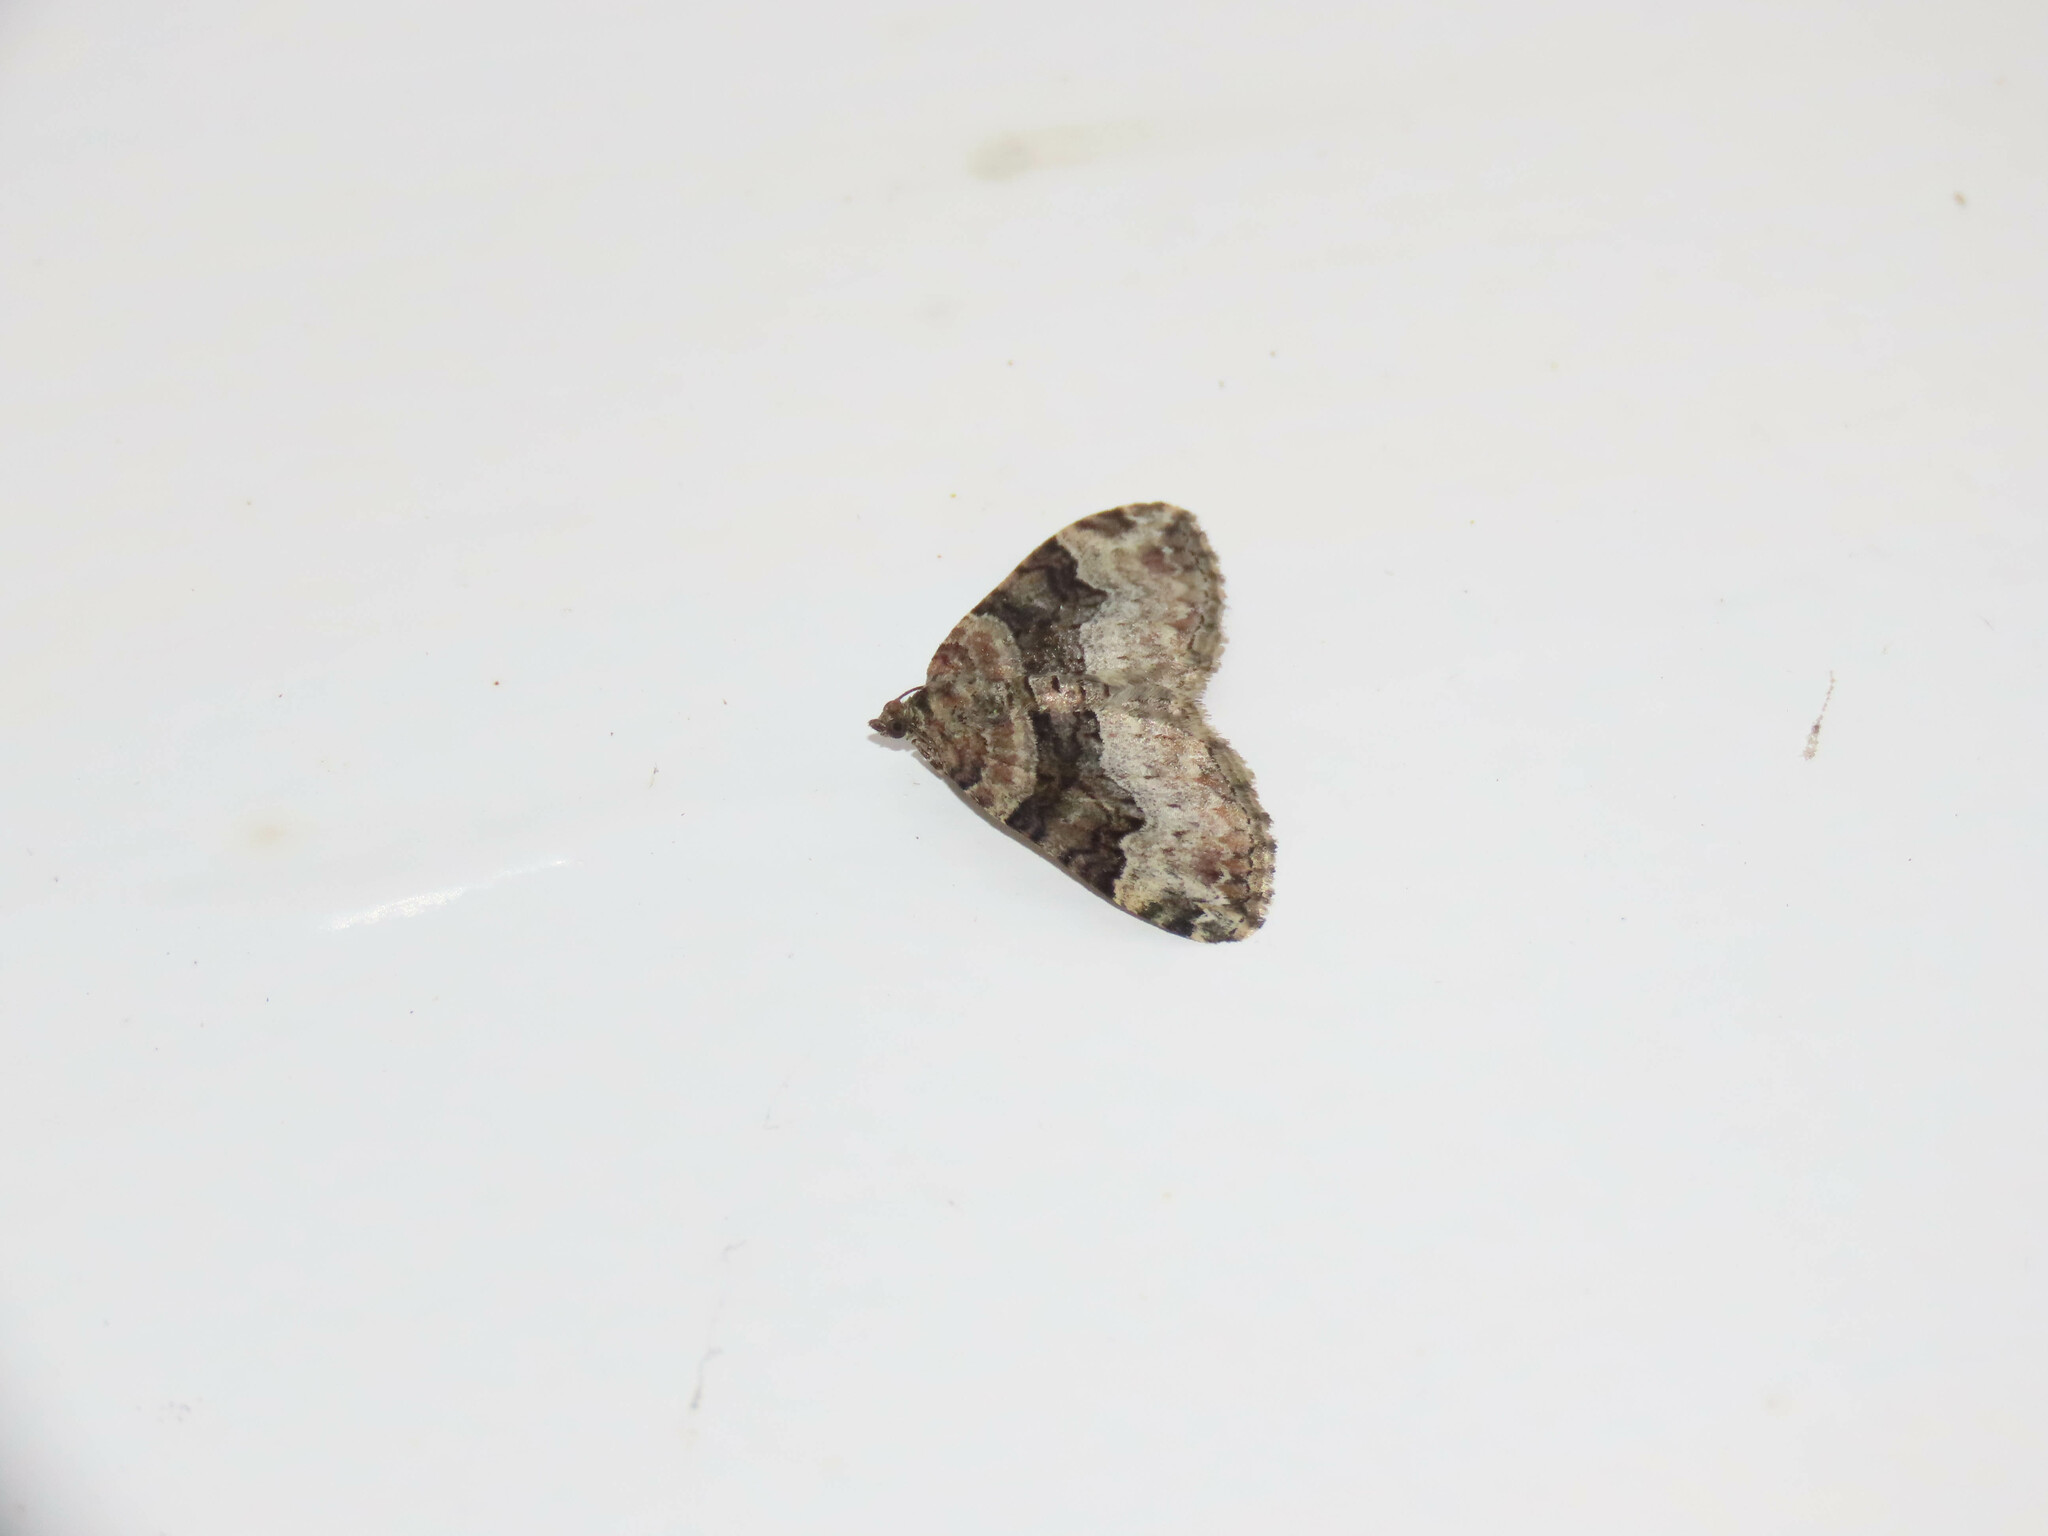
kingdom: Animalia
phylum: Arthropoda
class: Insecta
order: Lepidoptera
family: Geometridae
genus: Euphyia
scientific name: Euphyia intermediata
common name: Sharp-angled carpet
